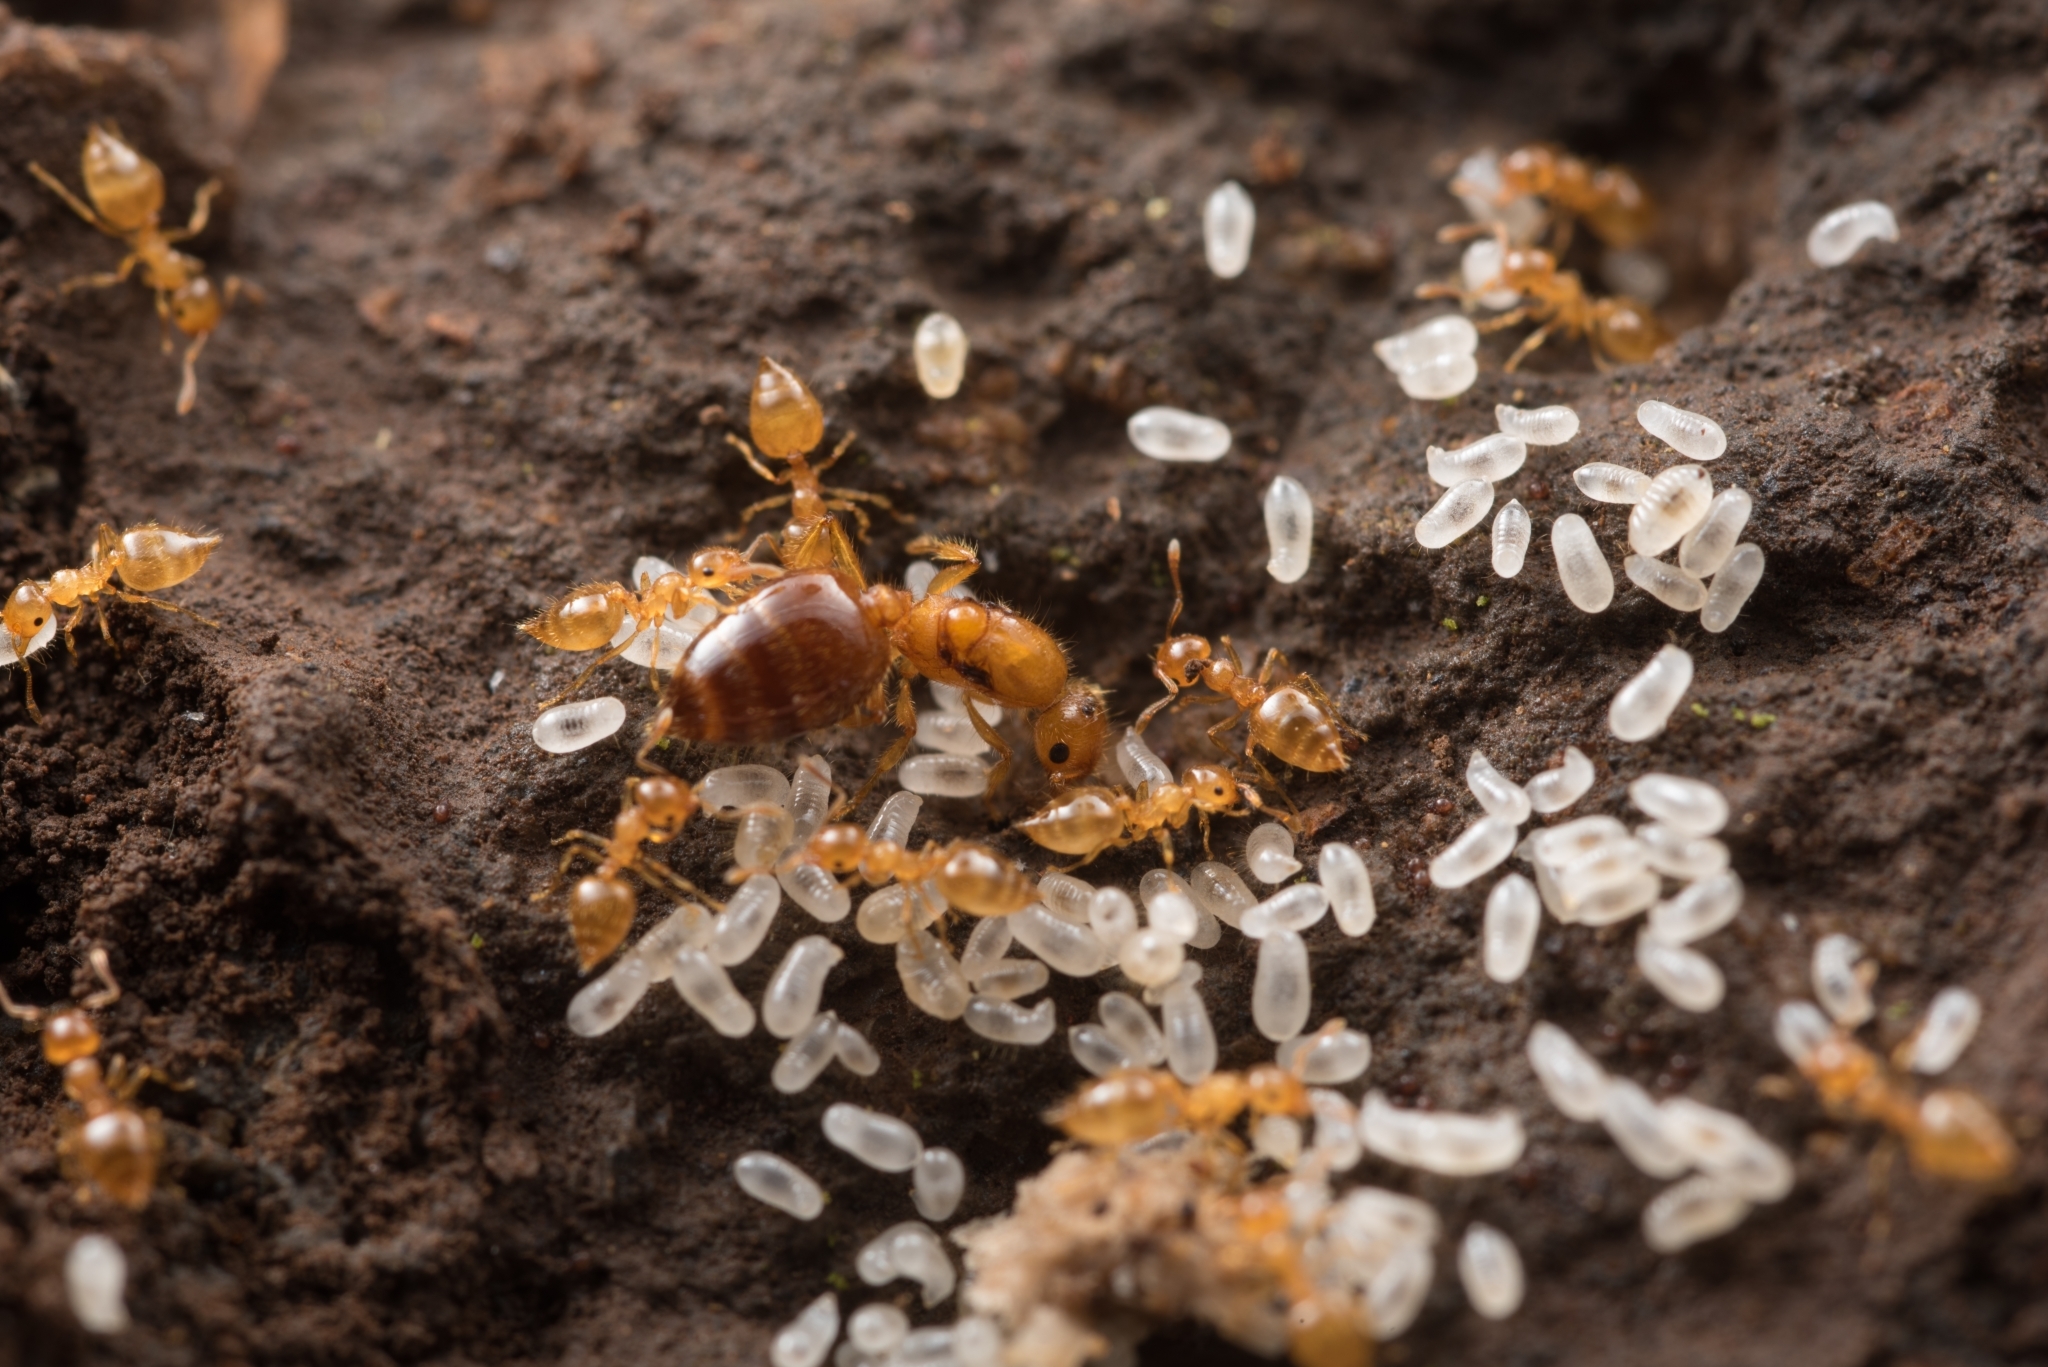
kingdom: Animalia
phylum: Arthropoda
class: Insecta
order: Hymenoptera
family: Formicidae
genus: Crematogaster
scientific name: Crematogaster osakensis
